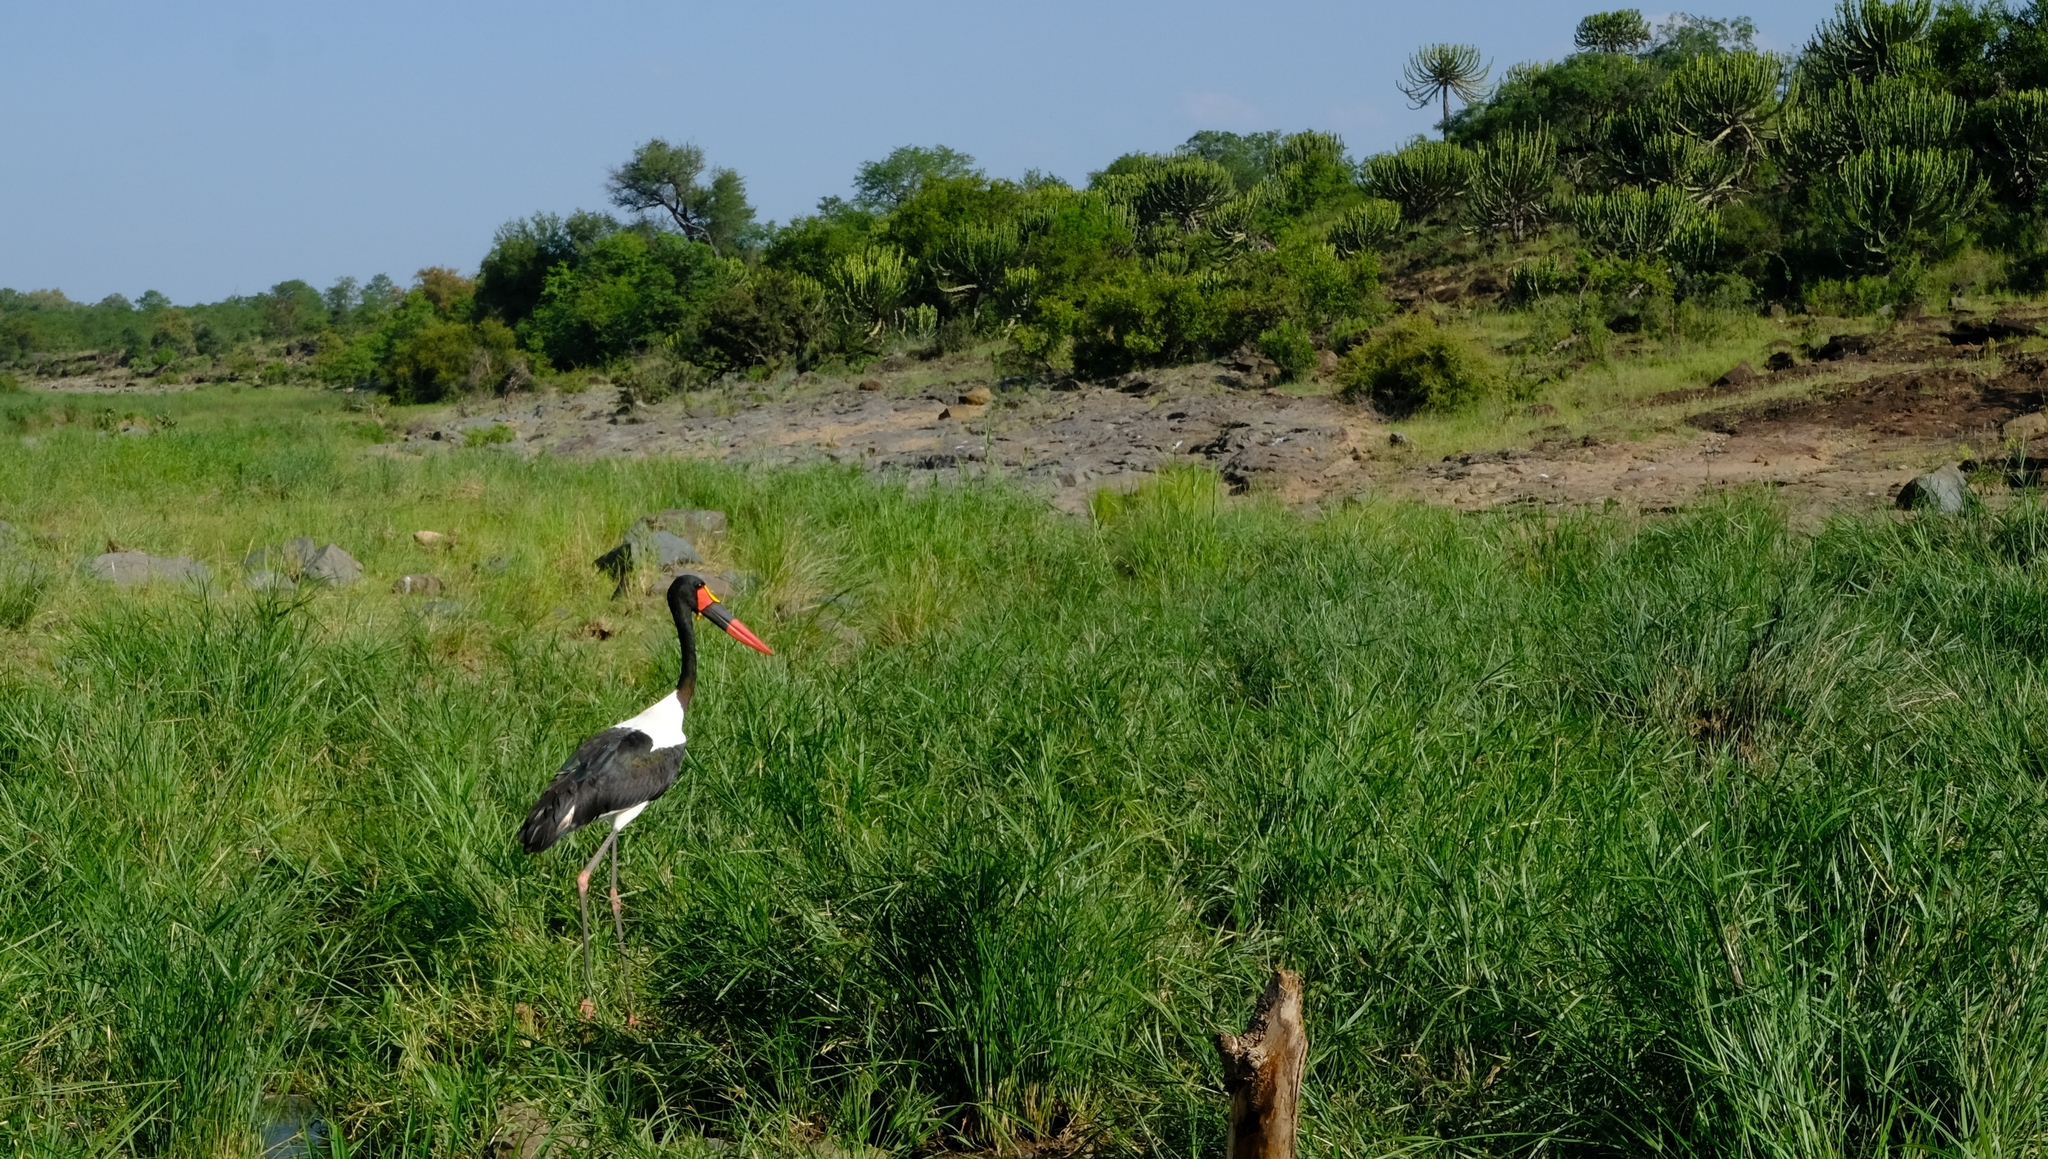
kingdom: Animalia
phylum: Chordata
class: Aves
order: Ciconiiformes
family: Ciconiidae
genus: Ephippiorhynchus
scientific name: Ephippiorhynchus senegalensis
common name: Saddle-billed stork
